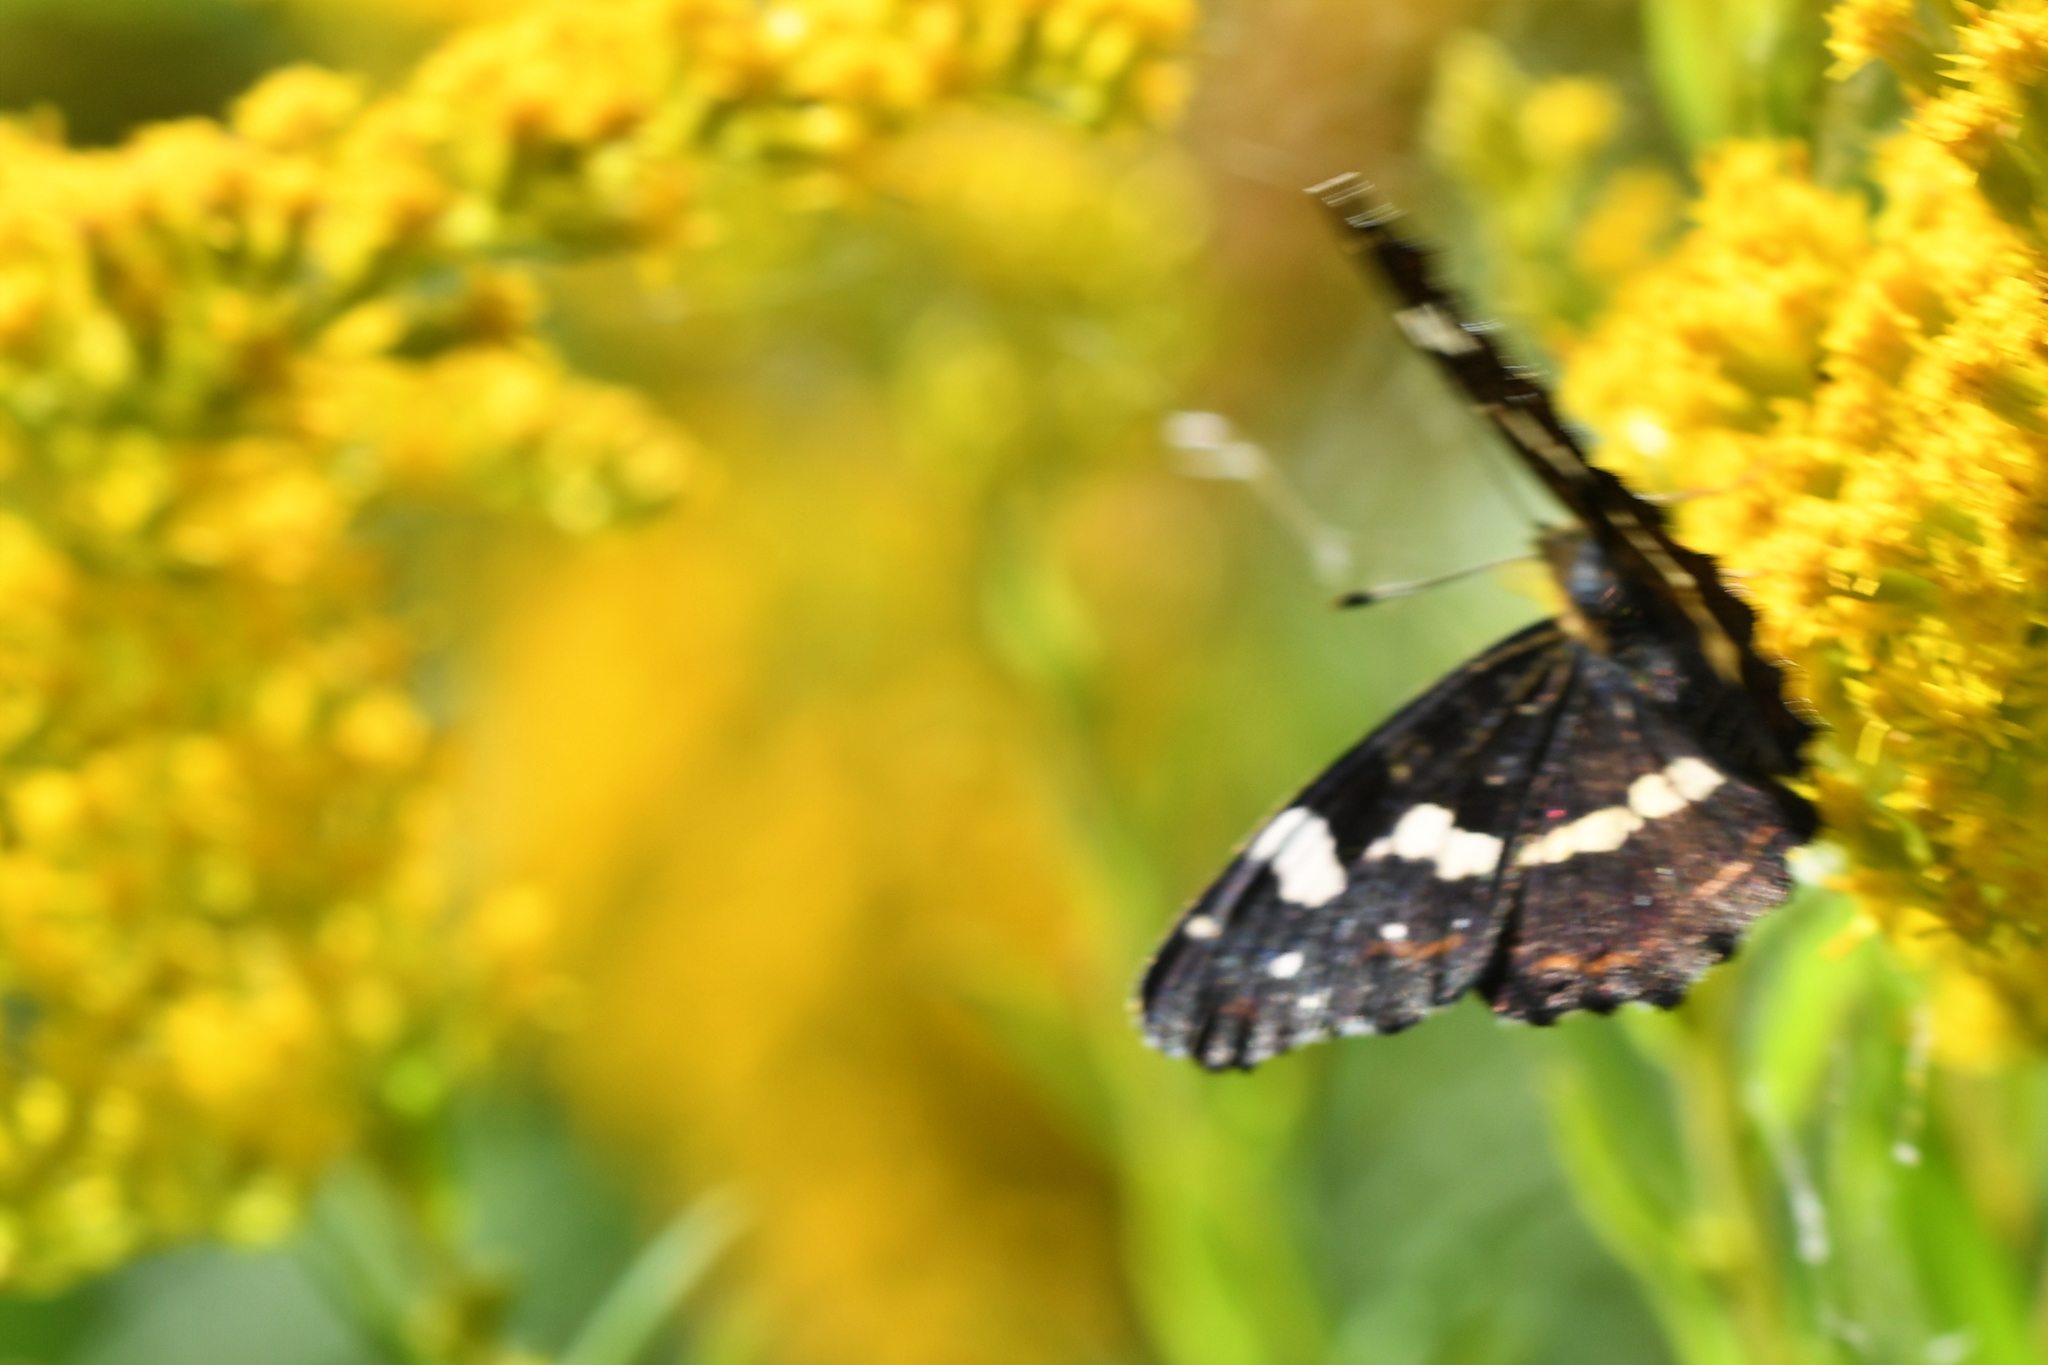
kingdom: Animalia
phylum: Arthropoda
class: Insecta
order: Lepidoptera
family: Nymphalidae
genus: Araschnia
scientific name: Araschnia levana
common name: Map butterfly
